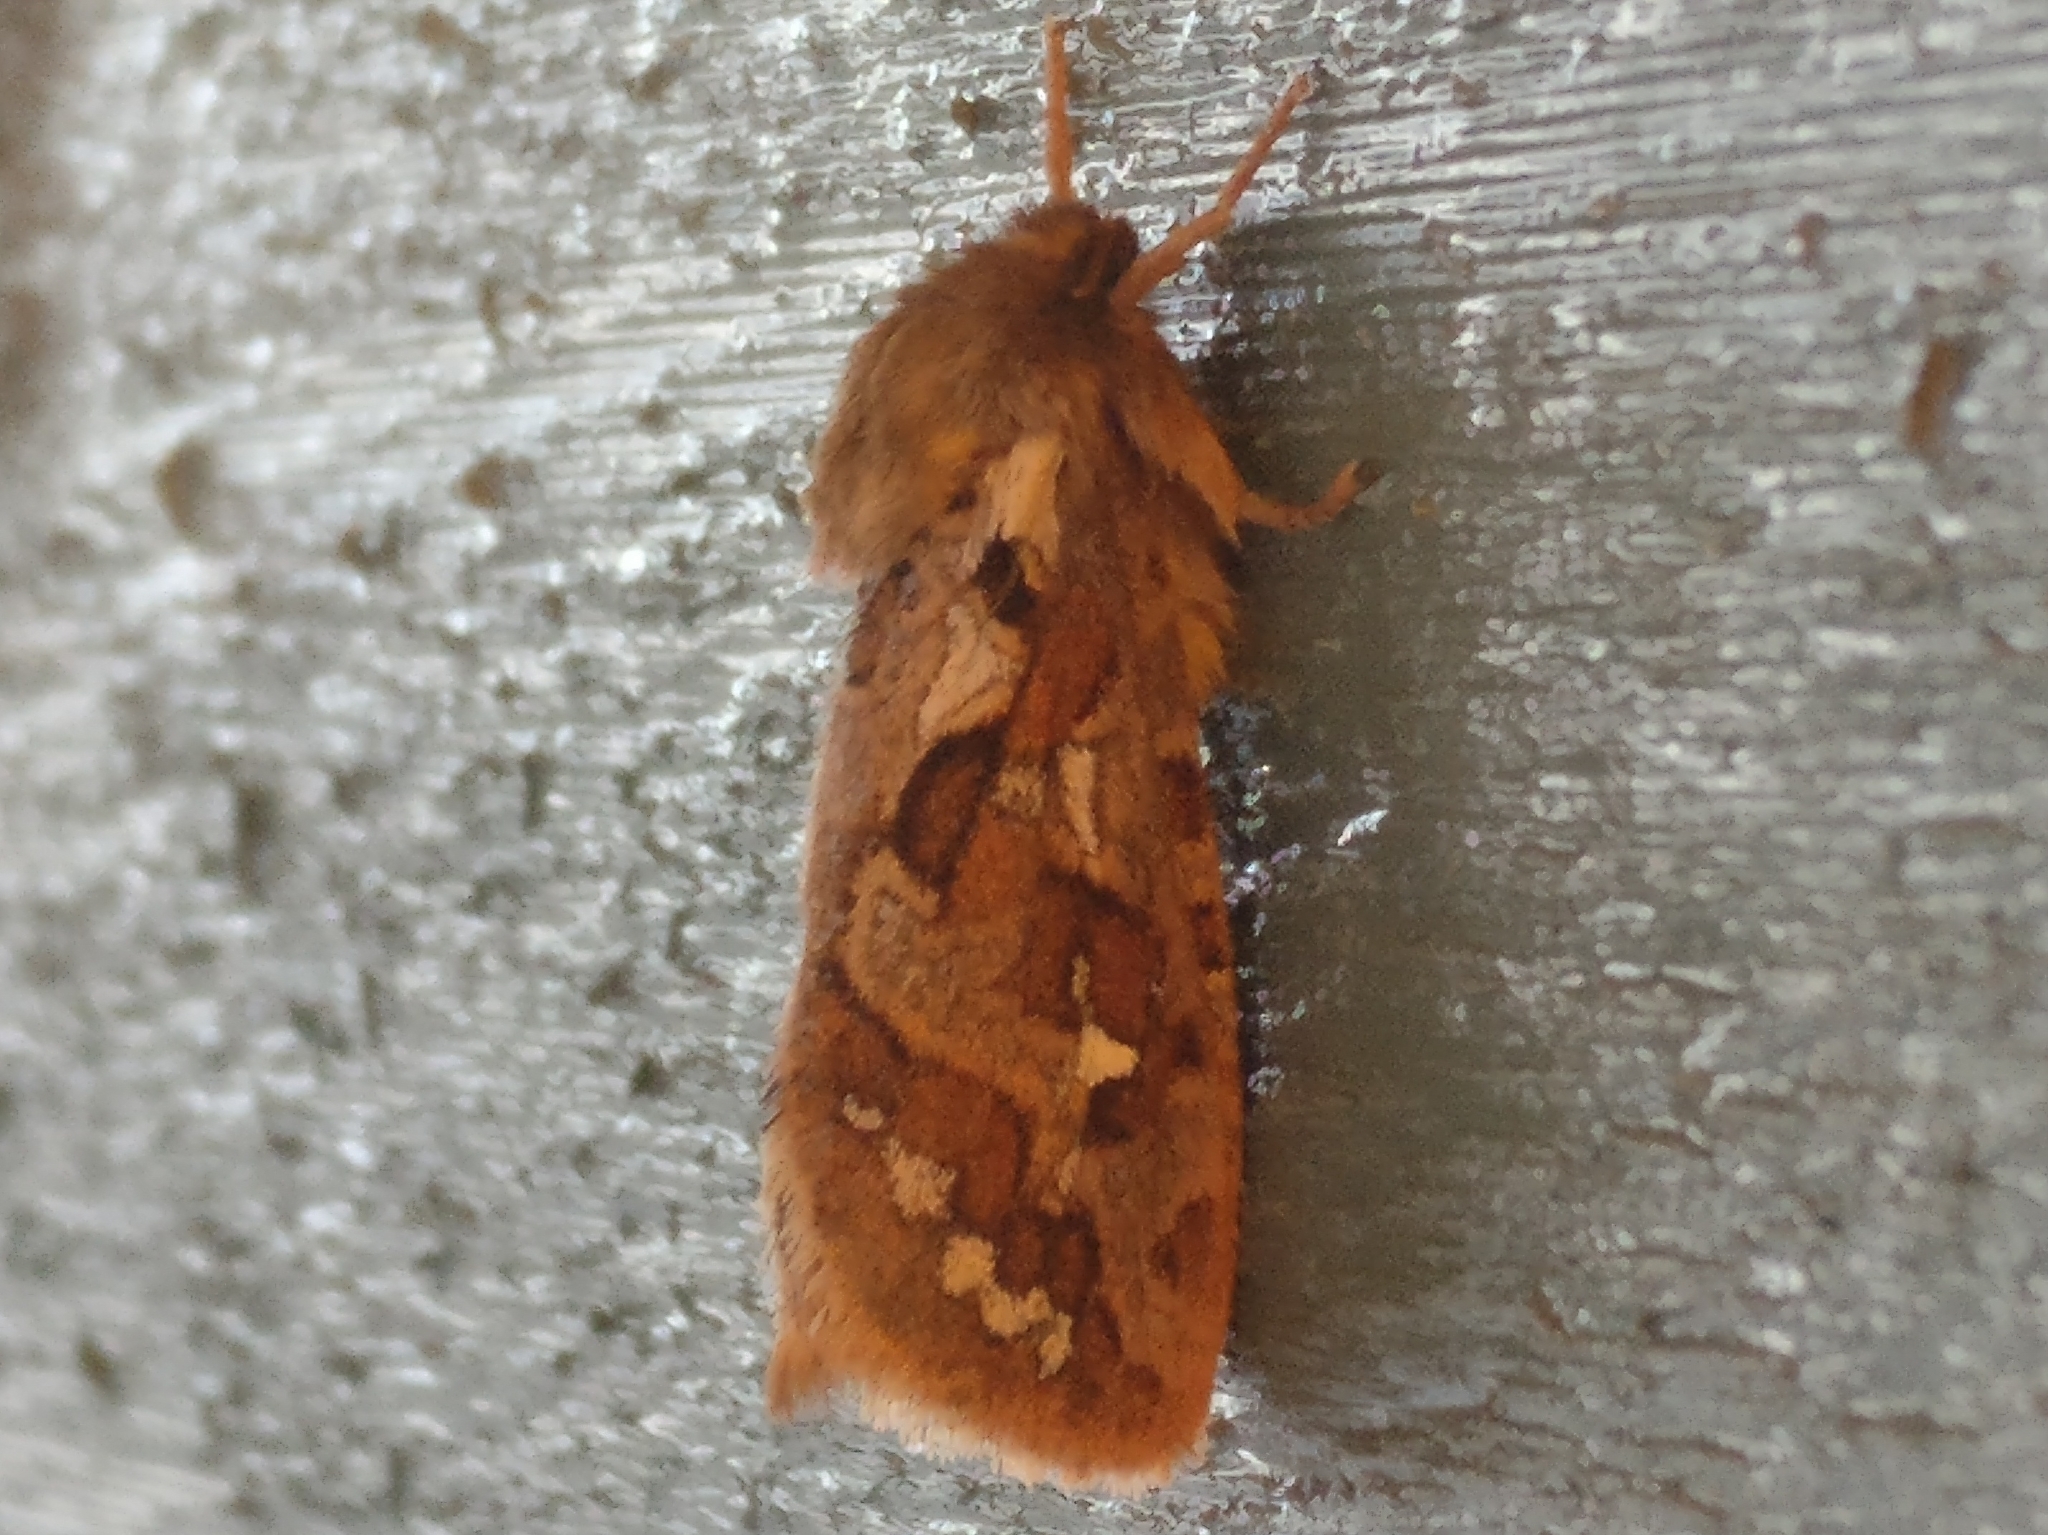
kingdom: Animalia
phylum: Arthropoda
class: Insecta
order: Lepidoptera
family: Hepialidae
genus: Korscheltellus
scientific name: Korscheltellus fusconebulosus
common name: Map-winged swift
